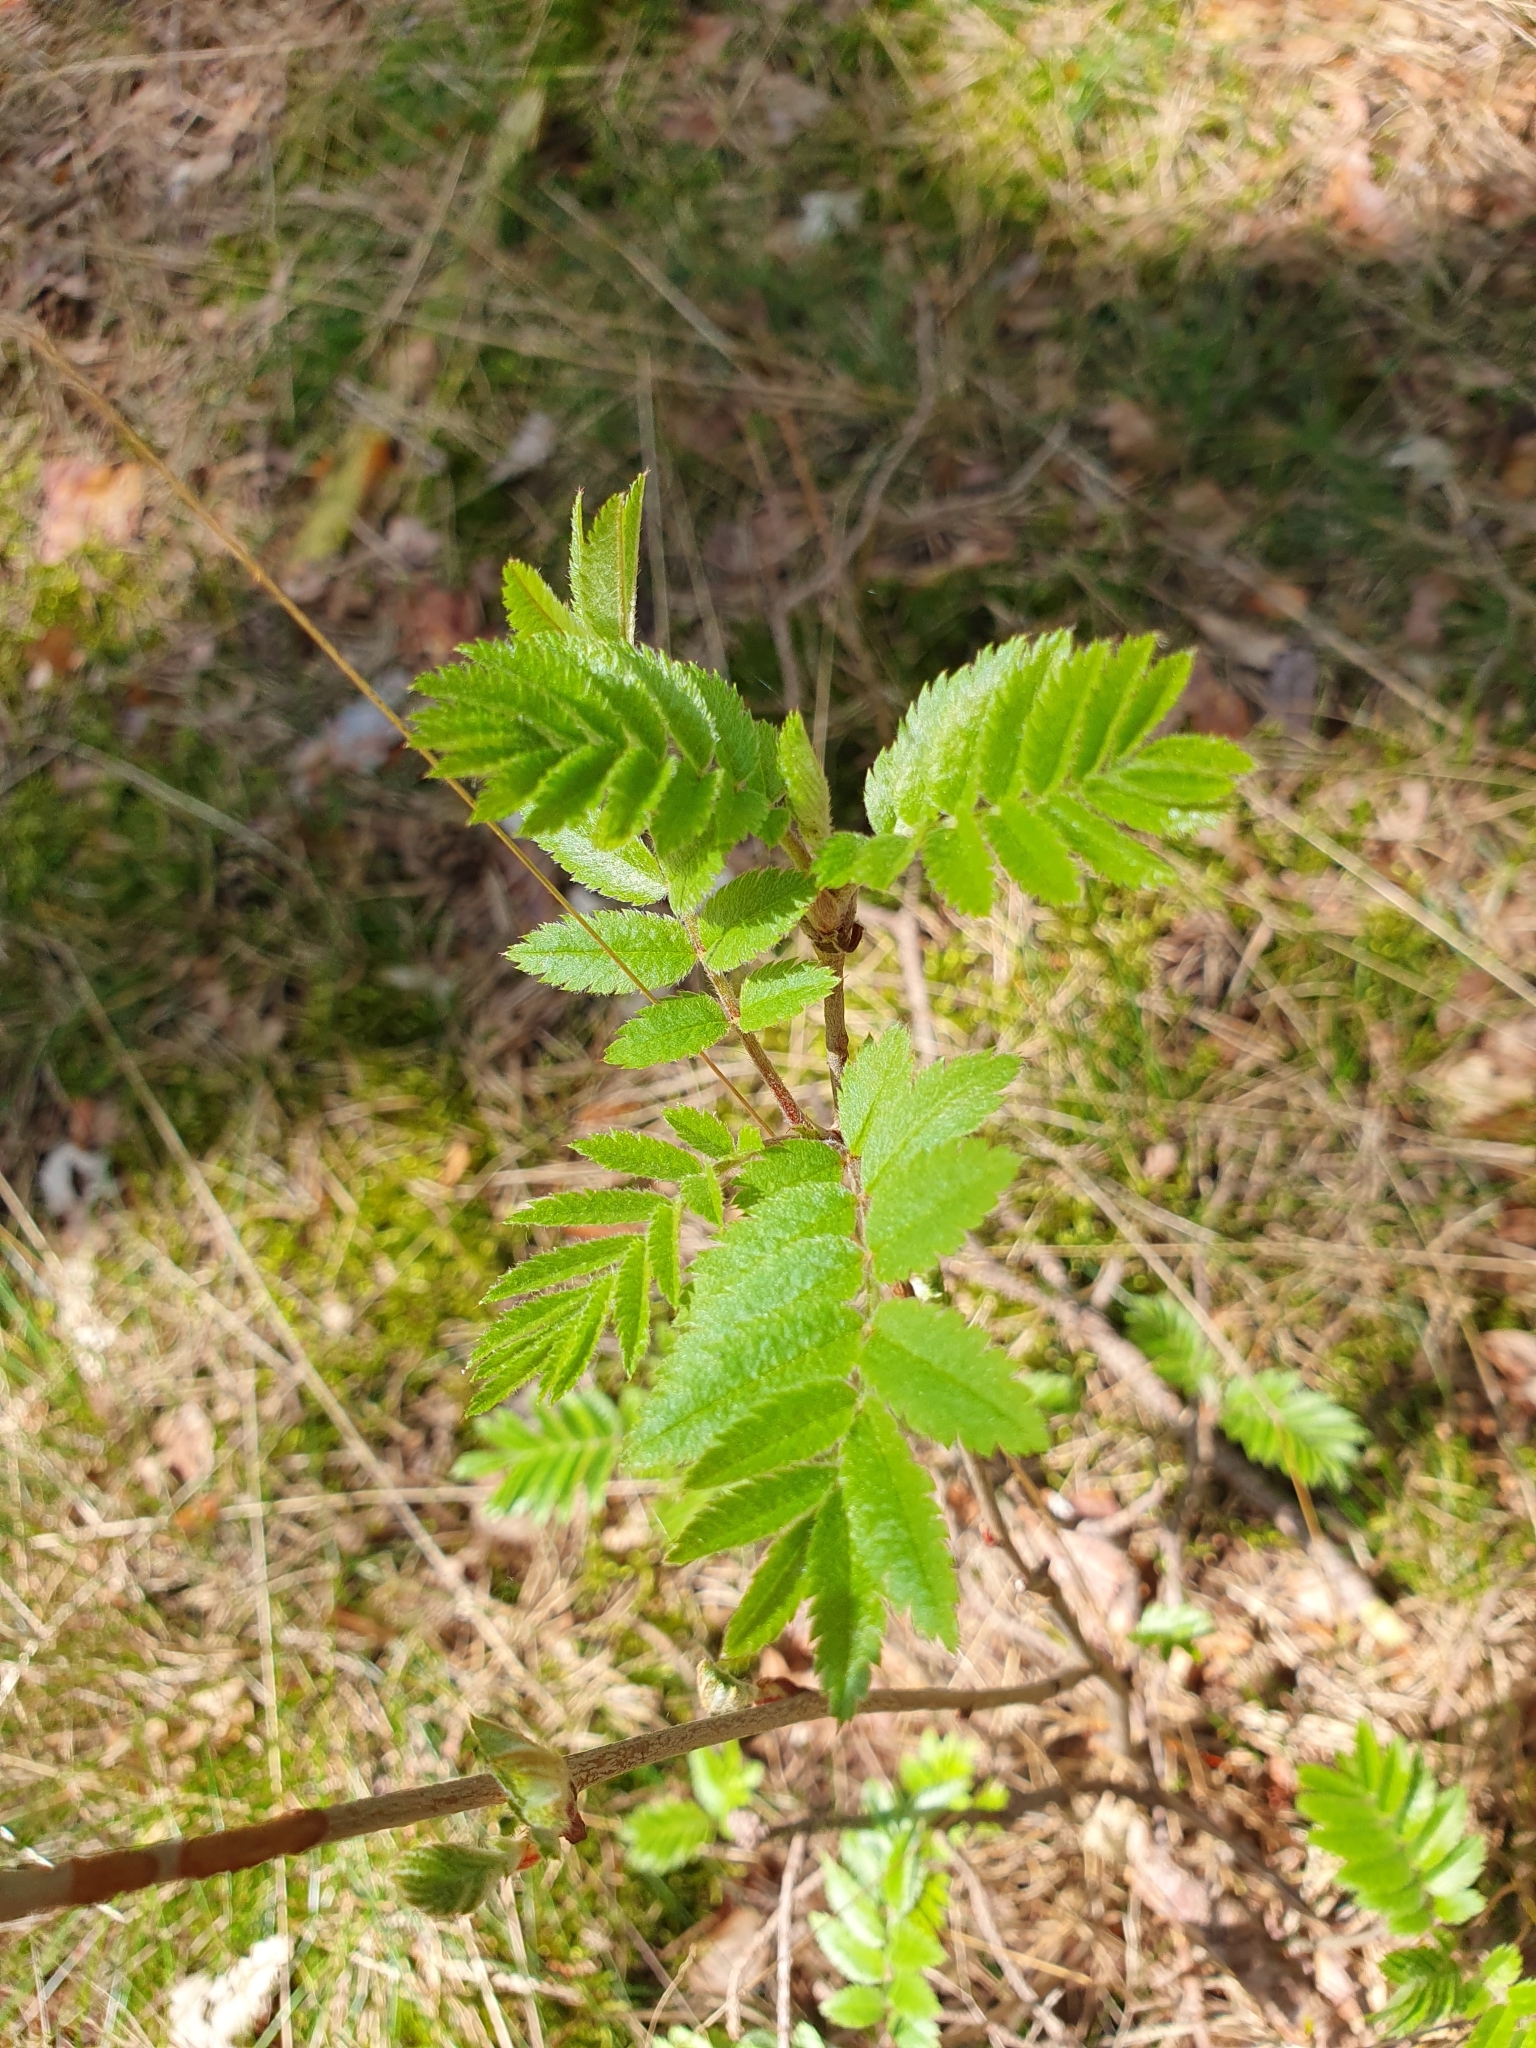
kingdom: Plantae
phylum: Tracheophyta
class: Magnoliopsida
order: Rosales
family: Rosaceae
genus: Sorbus
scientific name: Sorbus aucuparia
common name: Rowan
